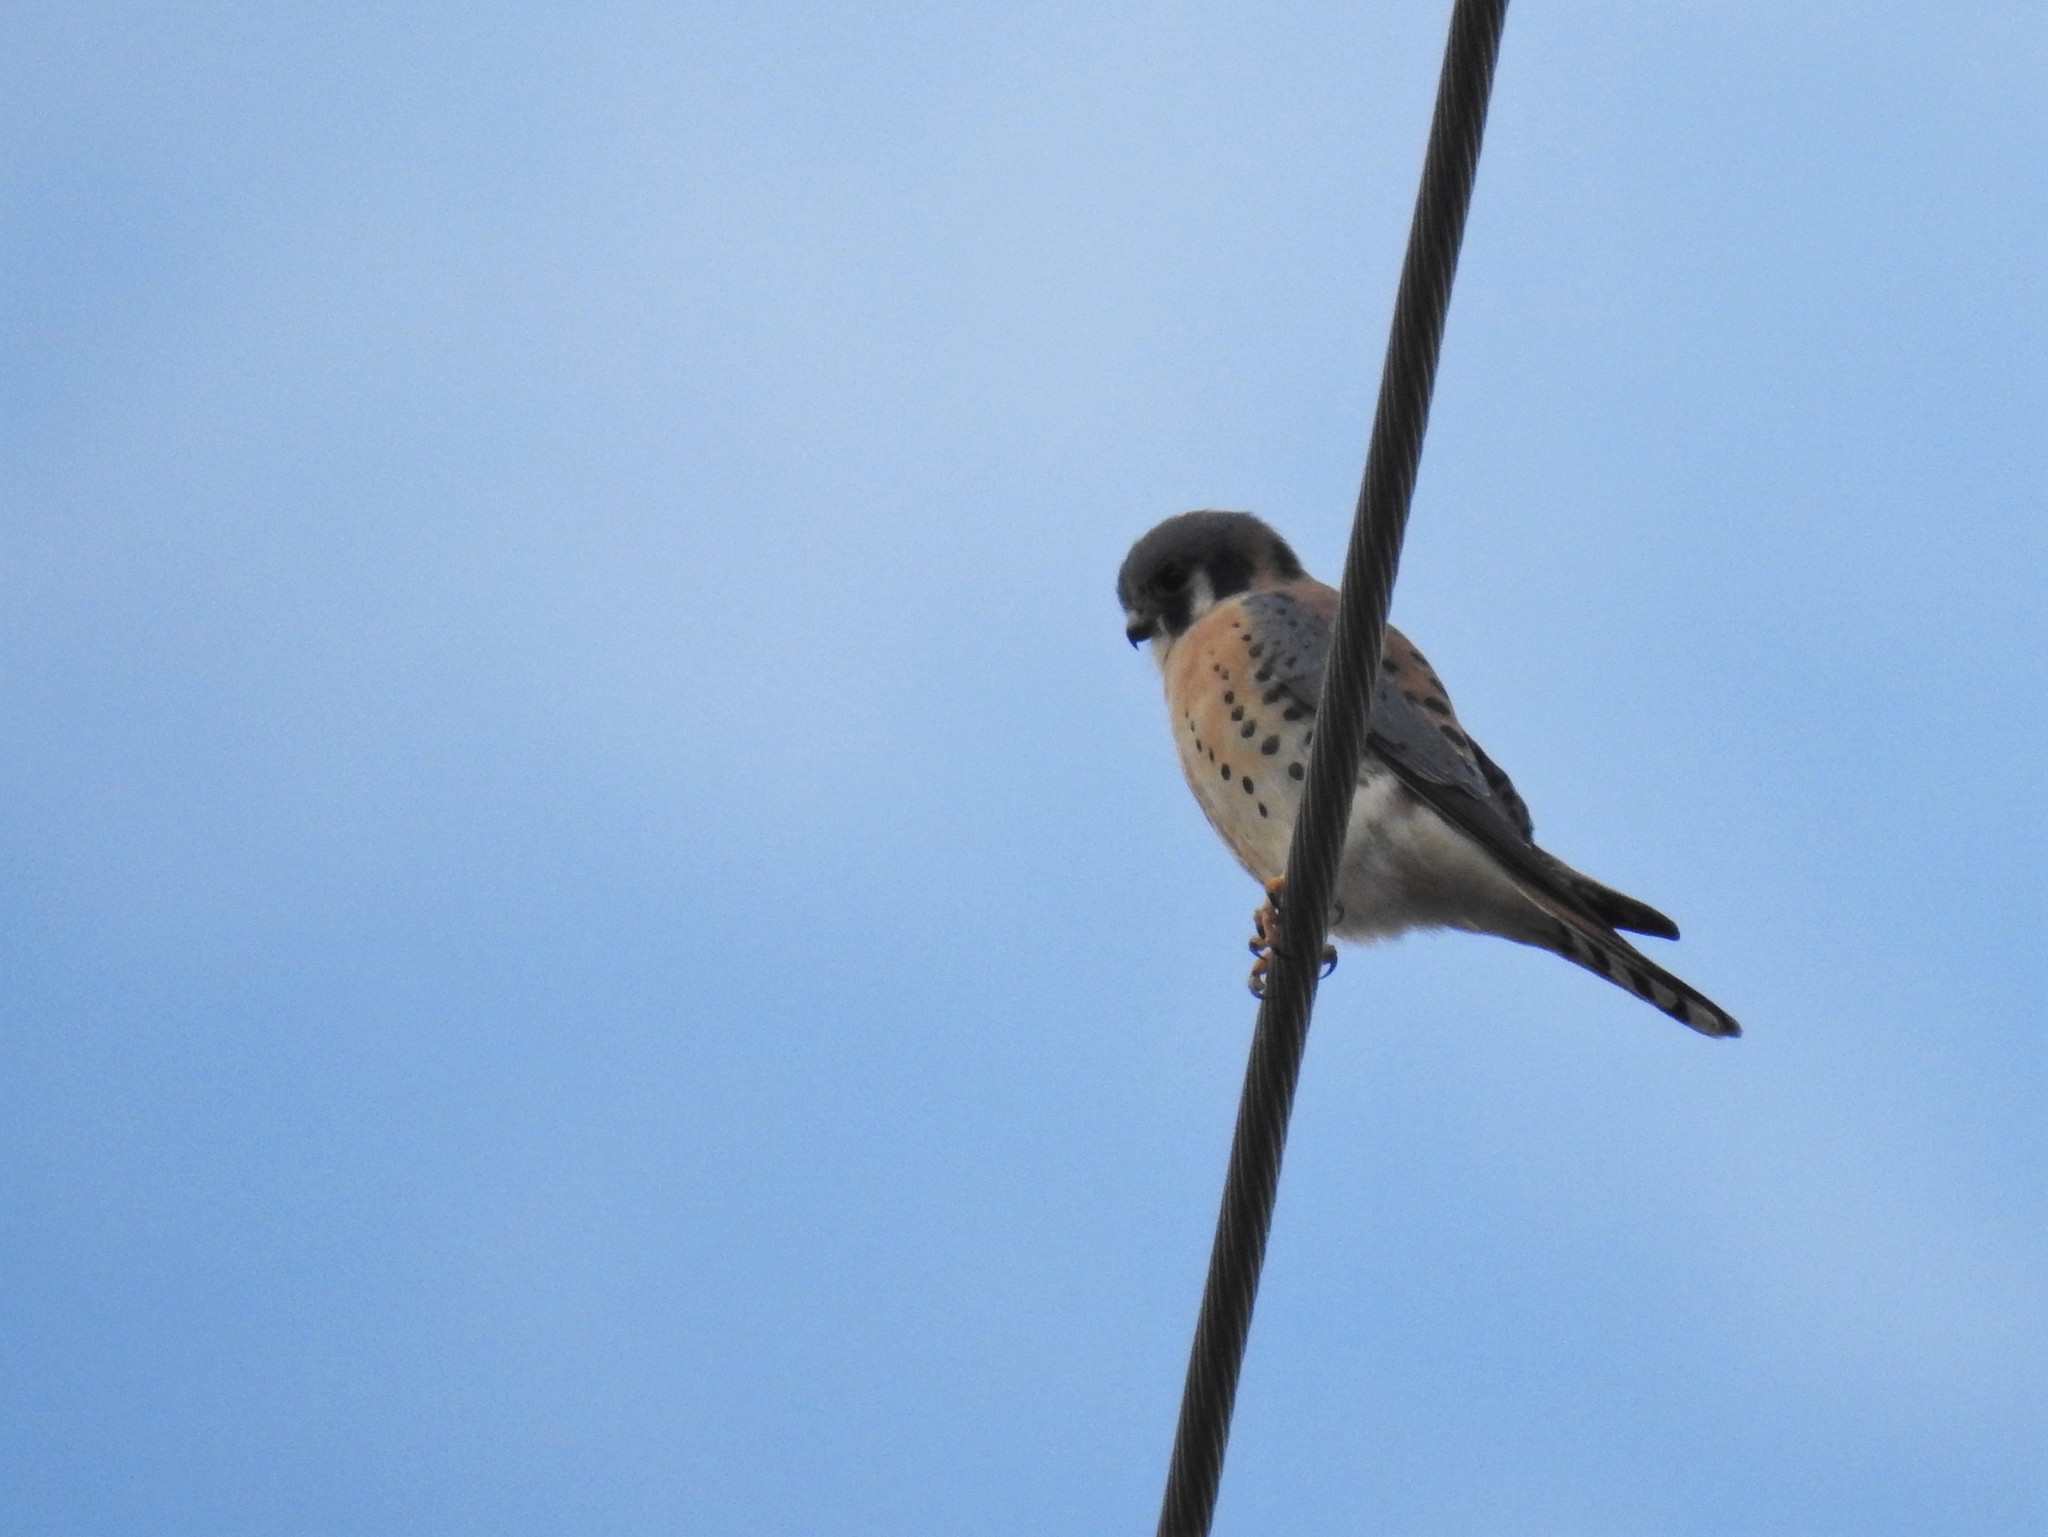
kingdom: Animalia
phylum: Chordata
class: Aves
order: Falconiformes
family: Falconidae
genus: Falco
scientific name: Falco sparverius
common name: American kestrel
